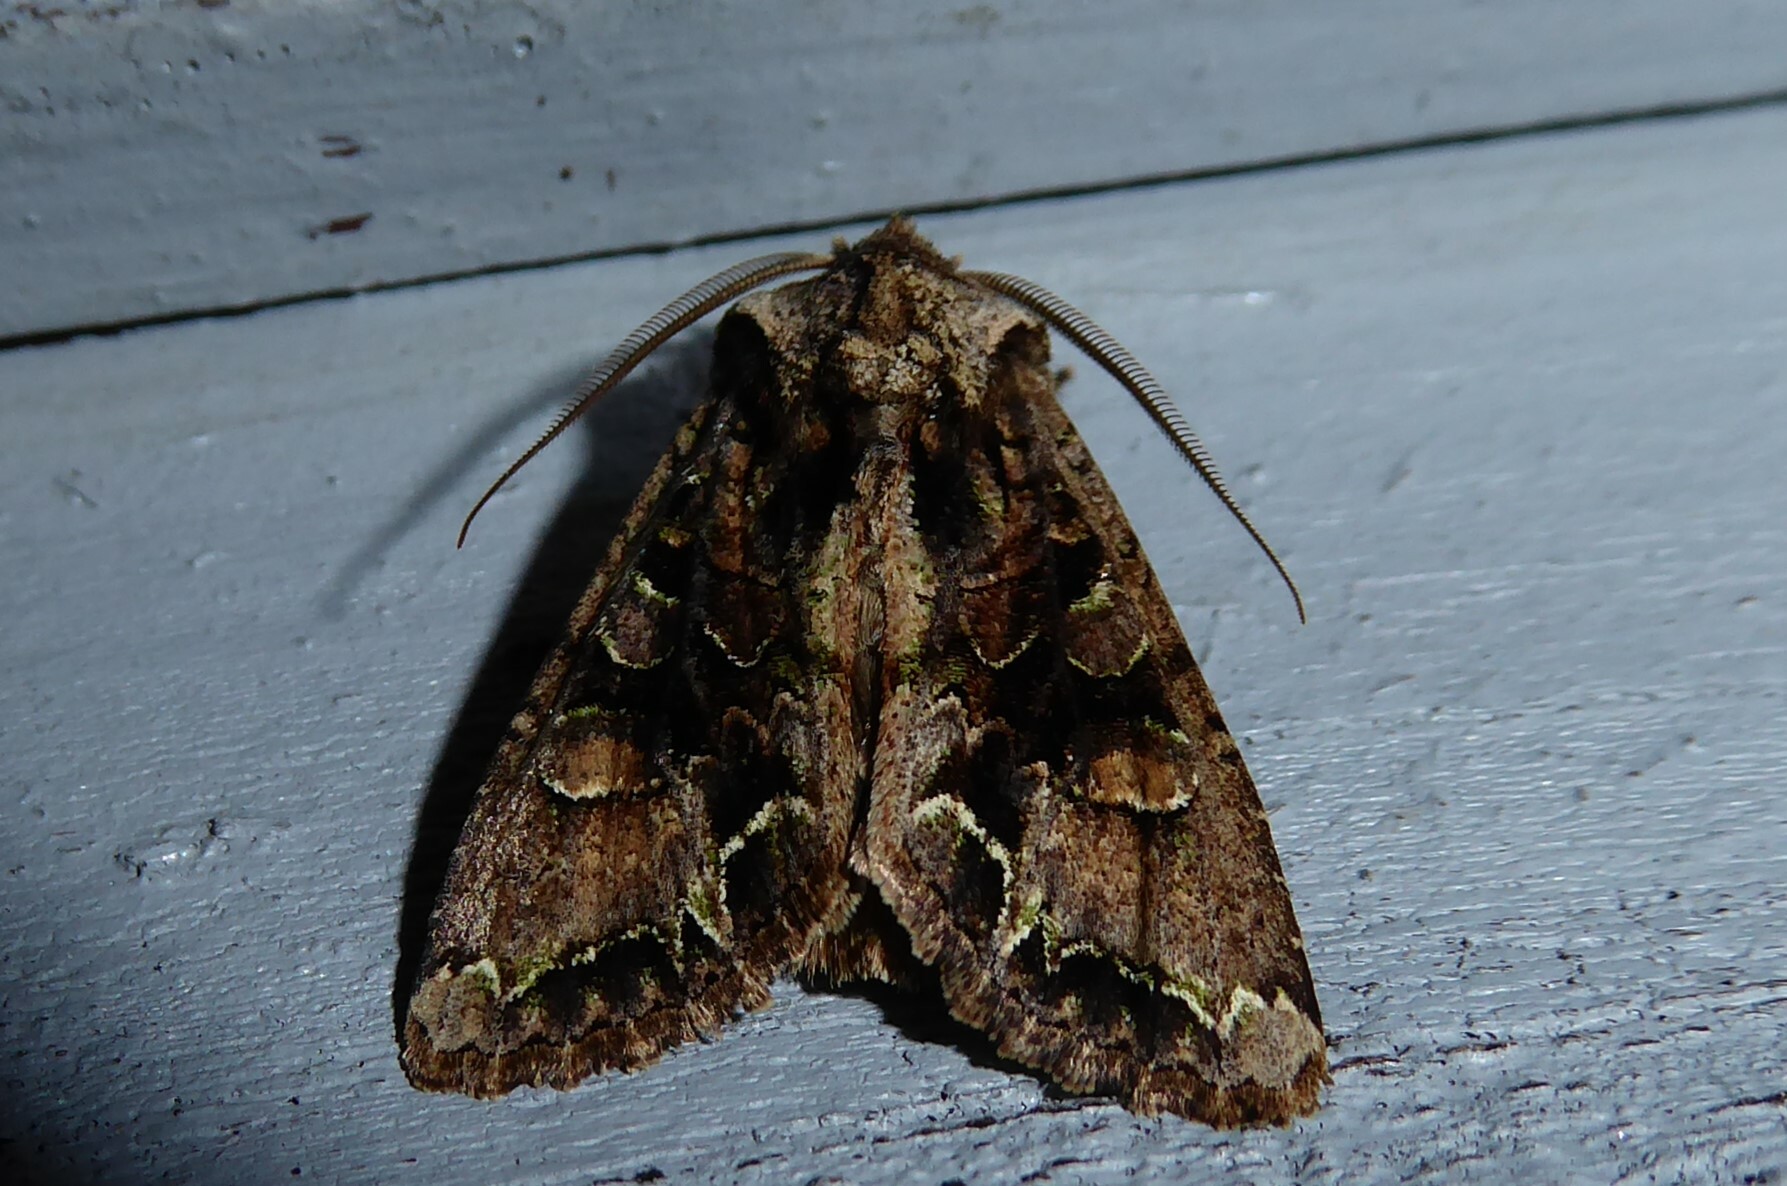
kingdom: Animalia
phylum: Arthropoda
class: Insecta
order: Lepidoptera
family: Noctuidae
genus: Ichneutica
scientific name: Ichneutica insignis
